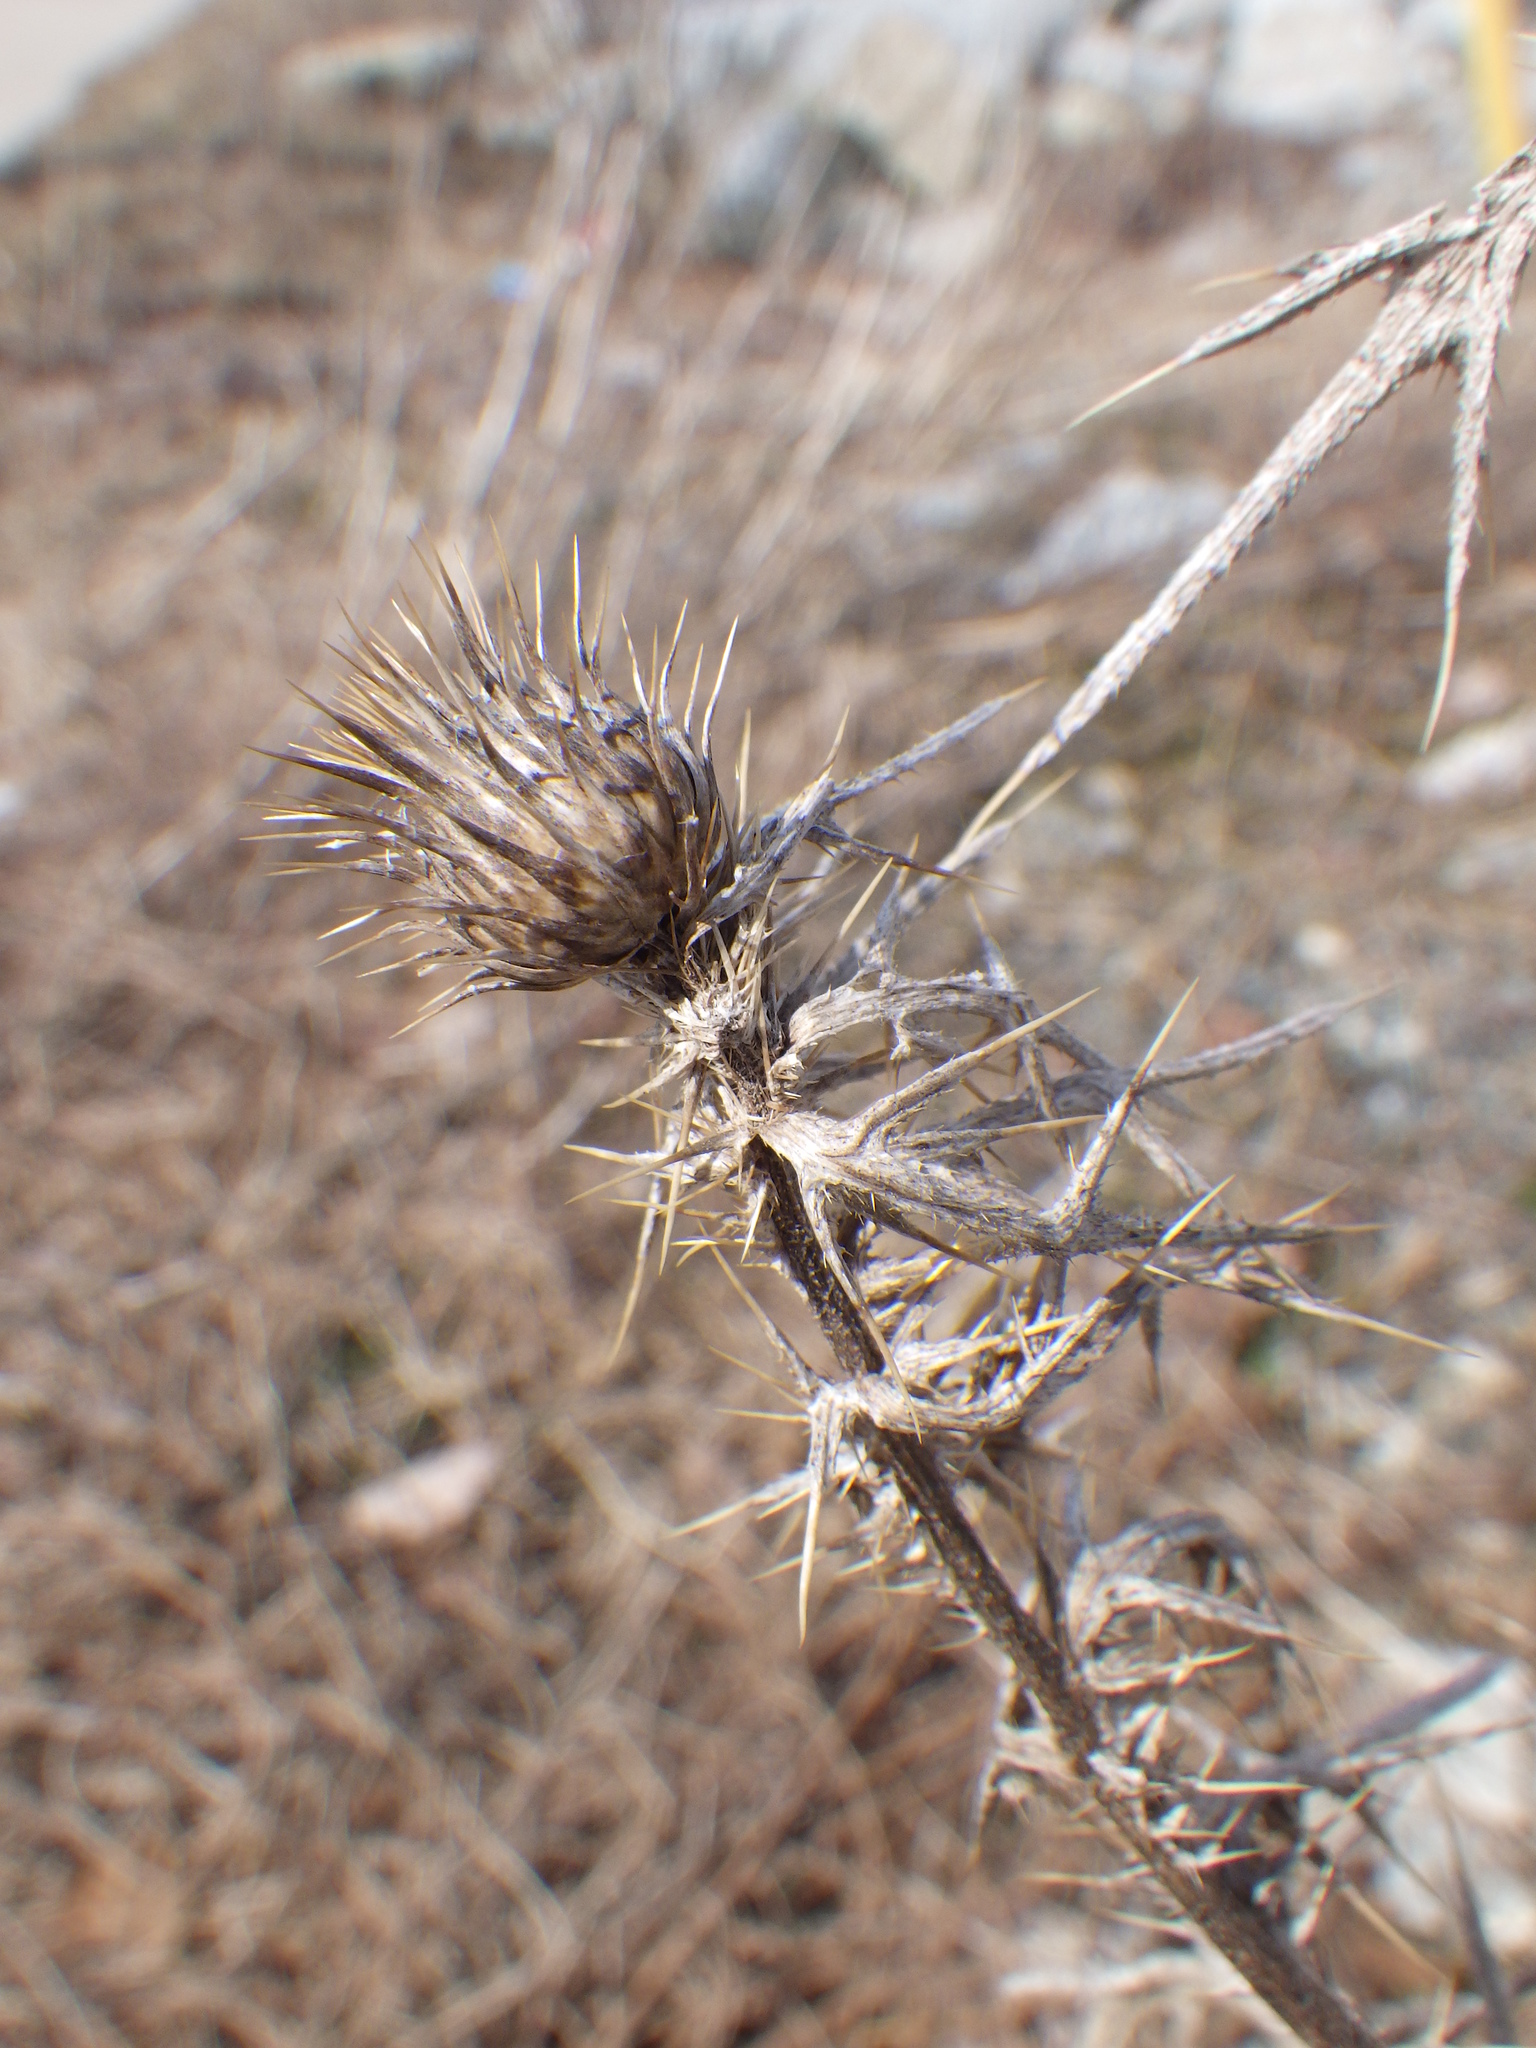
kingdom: Plantae
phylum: Tracheophyta
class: Magnoliopsida
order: Asterales
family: Asteraceae
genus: Cirsium
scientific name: Cirsium vulgare
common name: Bull thistle
